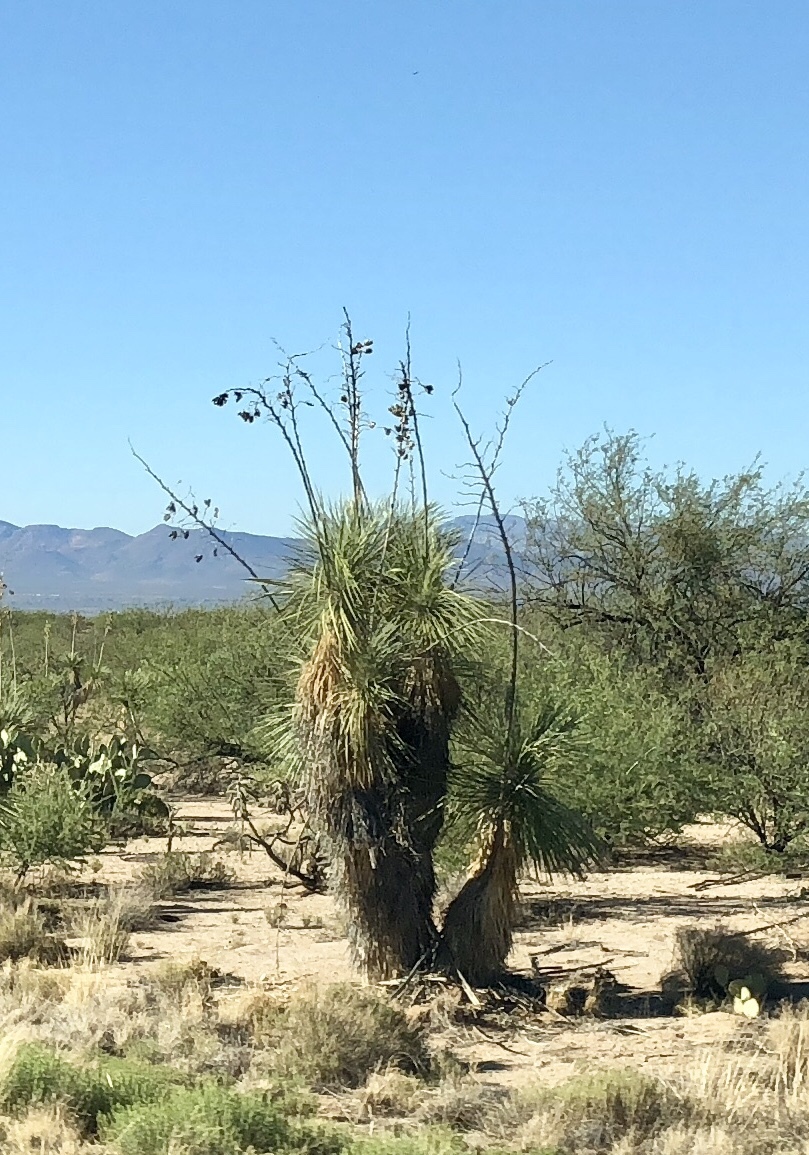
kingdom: Plantae
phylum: Tracheophyta
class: Liliopsida
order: Asparagales
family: Asparagaceae
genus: Yucca
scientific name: Yucca elata
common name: Palmella
